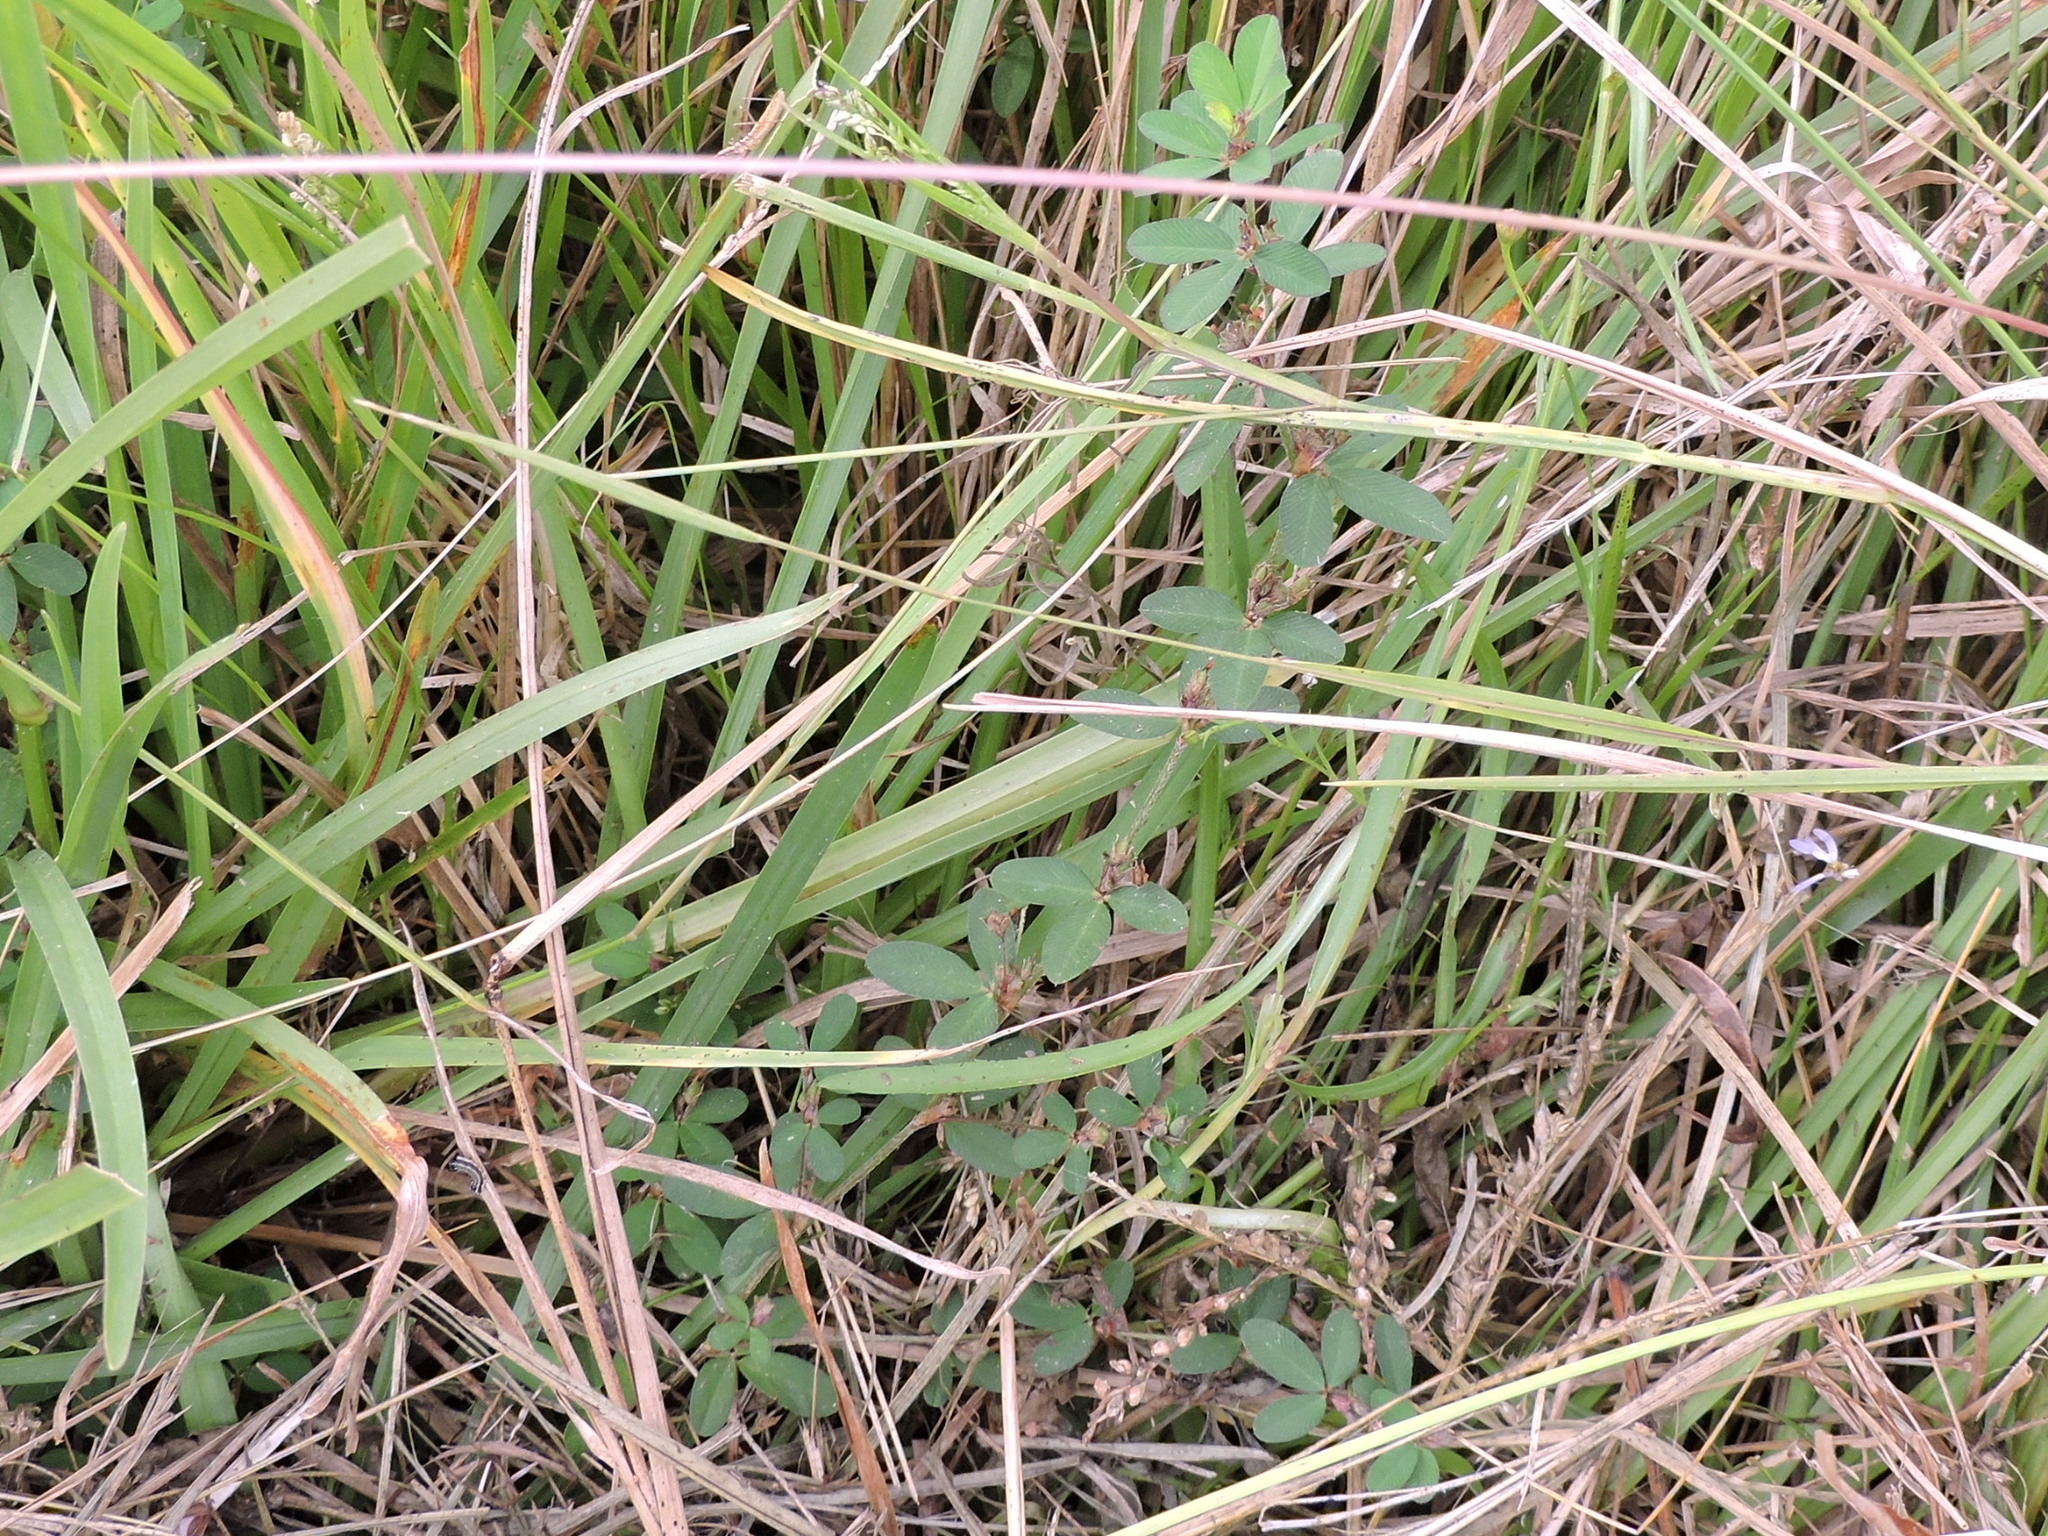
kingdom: Plantae
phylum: Tracheophyta
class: Magnoliopsida
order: Fabales
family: Fabaceae
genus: Kummerowia
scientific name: Kummerowia striata
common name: Japanese clover
